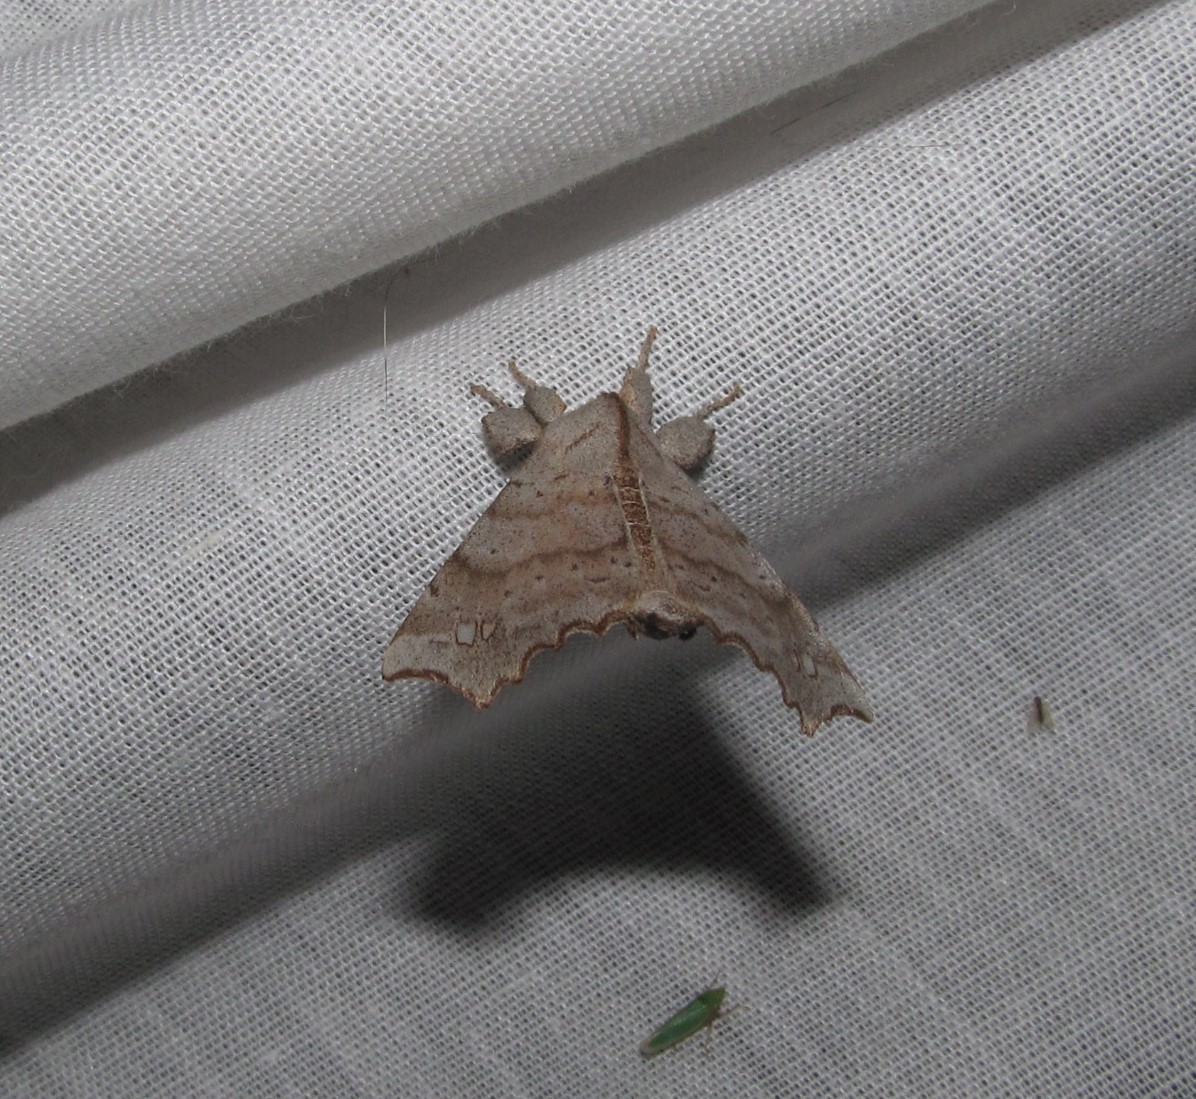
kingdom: Animalia
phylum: Arthropoda
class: Insecta
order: Lepidoptera
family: Apatelodidae
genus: Olceclostera
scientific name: Olceclostera angelica
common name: Angel moth
